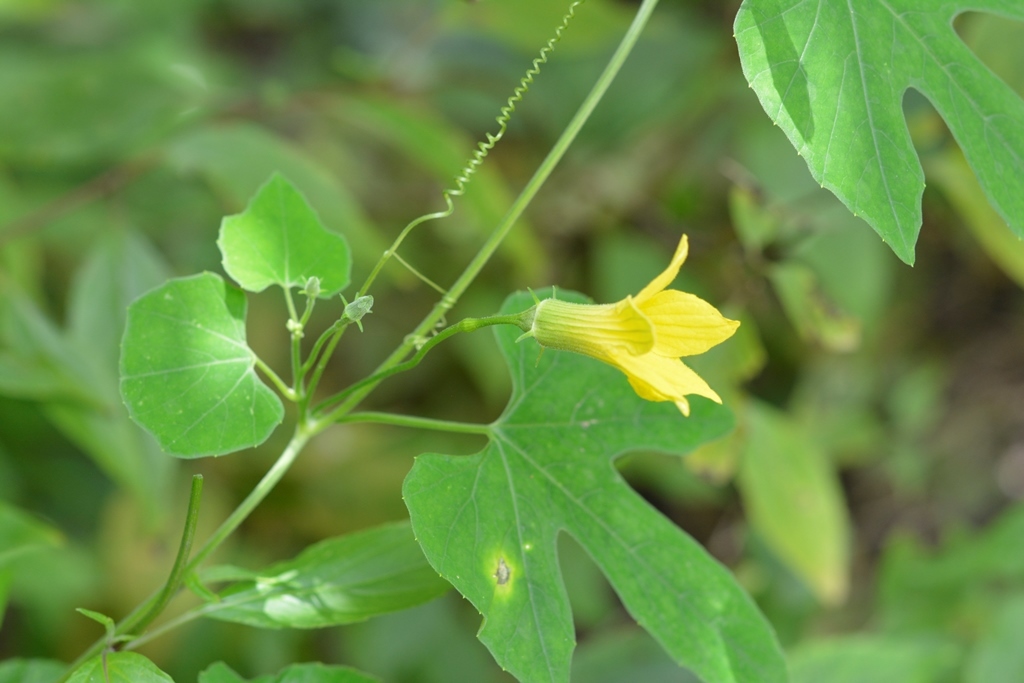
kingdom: Plantae
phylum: Tracheophyta
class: Magnoliopsida
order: Cucurbitales
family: Cucurbitaceae
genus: Schizocarpum
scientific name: Schizocarpum longisepalum
